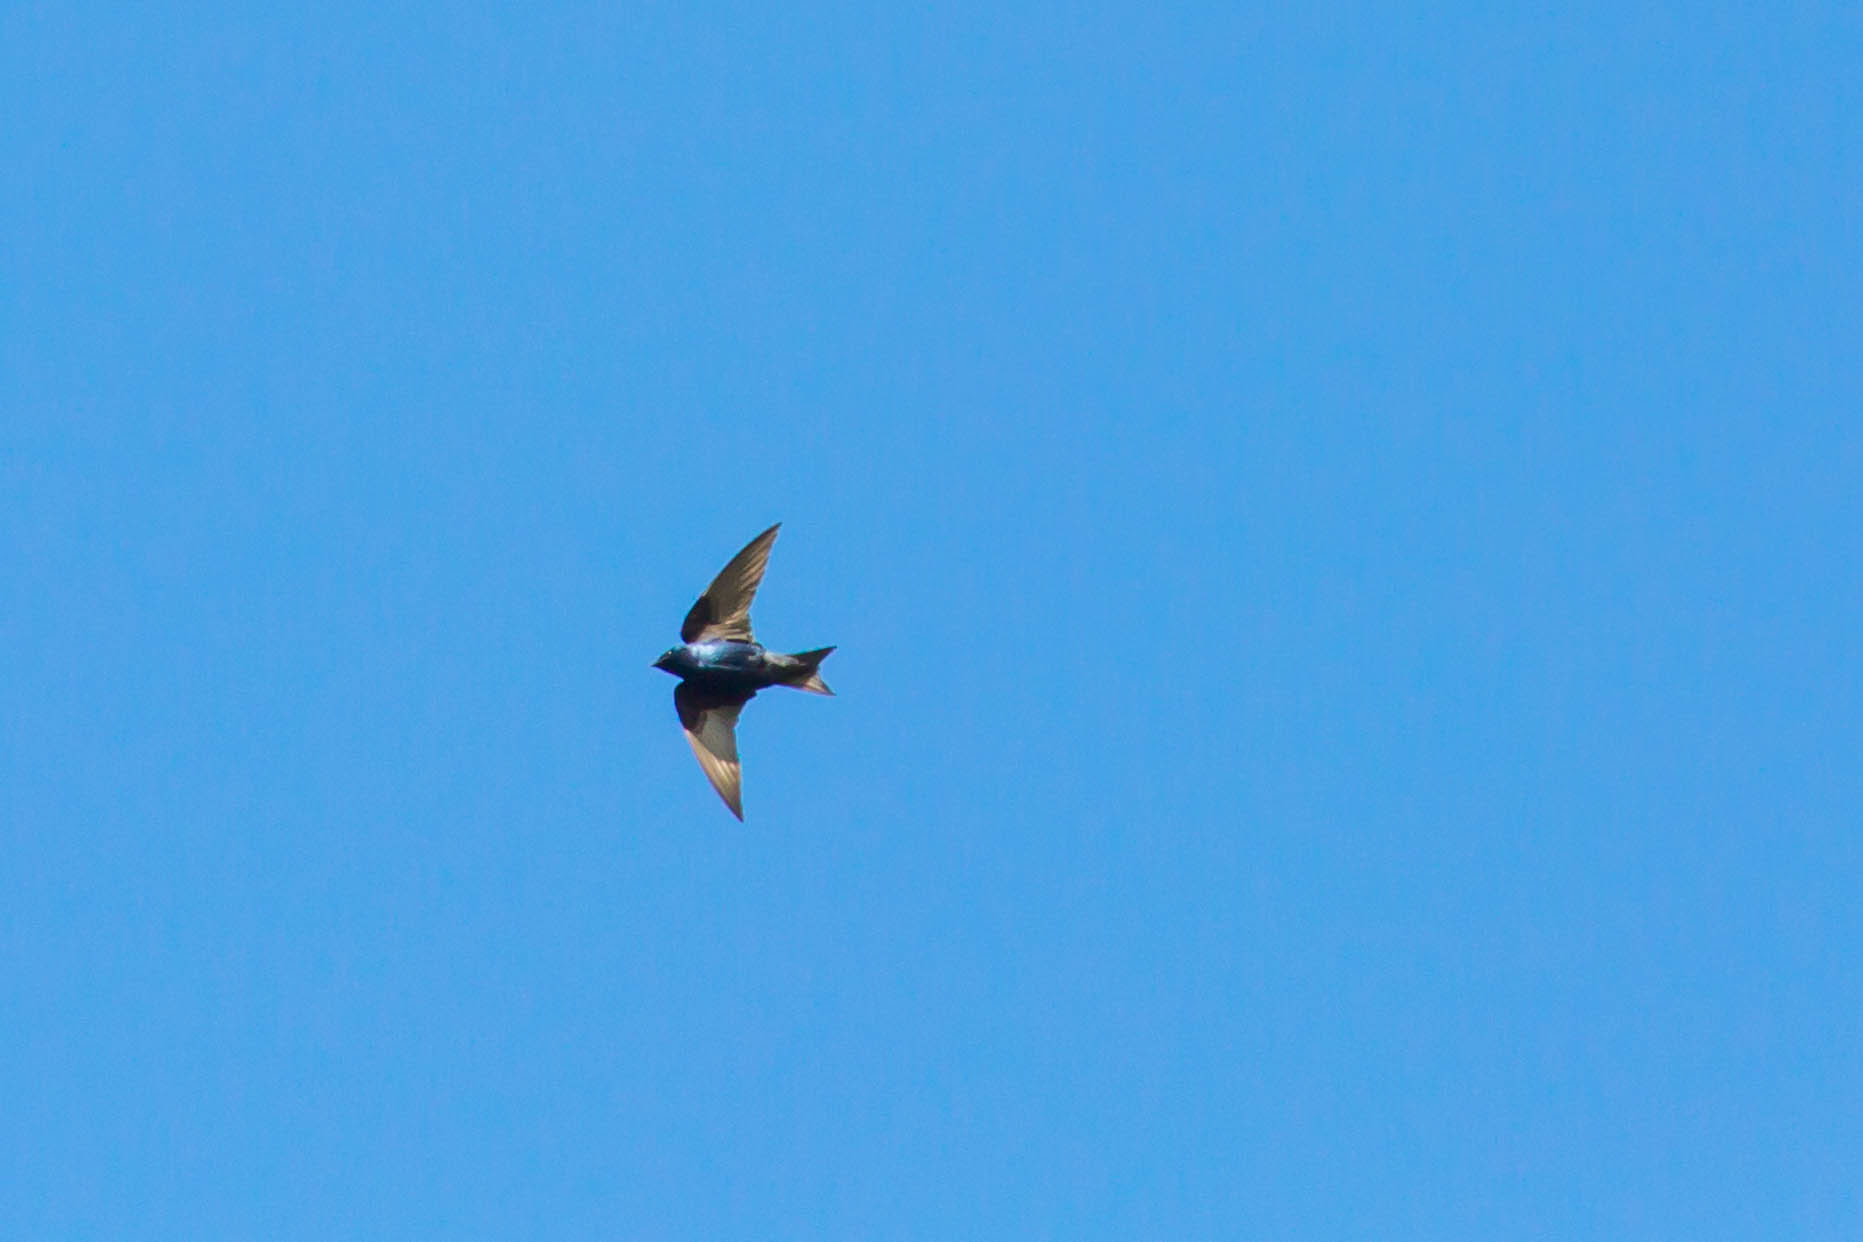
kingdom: Animalia
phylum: Chordata
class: Aves
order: Passeriformes
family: Hirundinidae
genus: Progne
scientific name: Progne subis
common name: Purple martin
